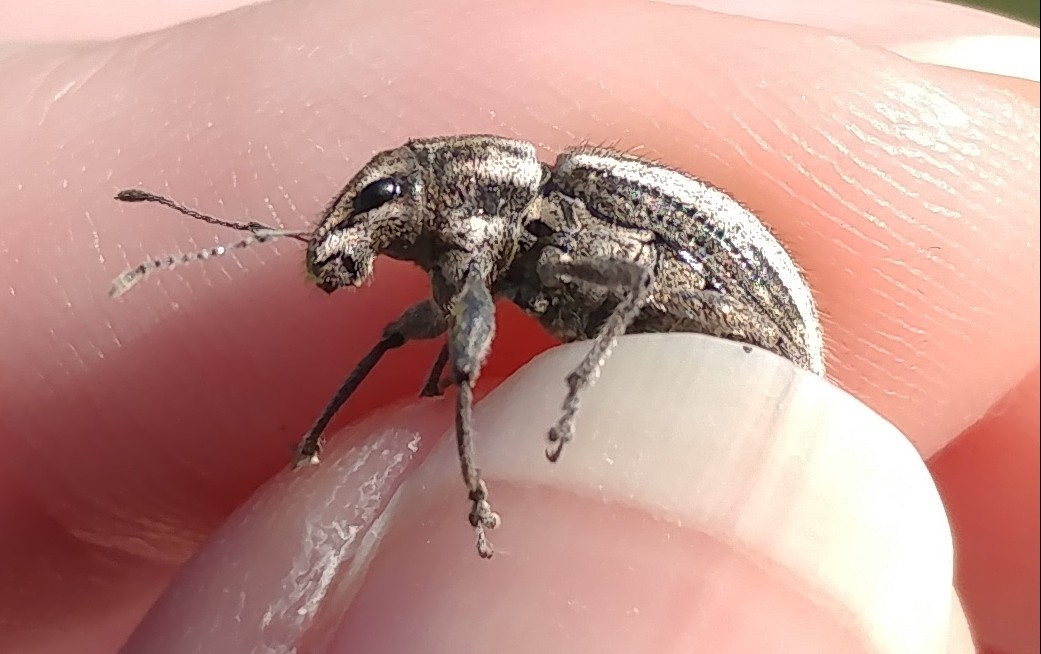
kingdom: Animalia
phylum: Arthropoda
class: Insecta
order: Coleoptera
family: Curculionidae
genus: Naupactus
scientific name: Naupactus leucoloma
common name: Whitefringed beetle
